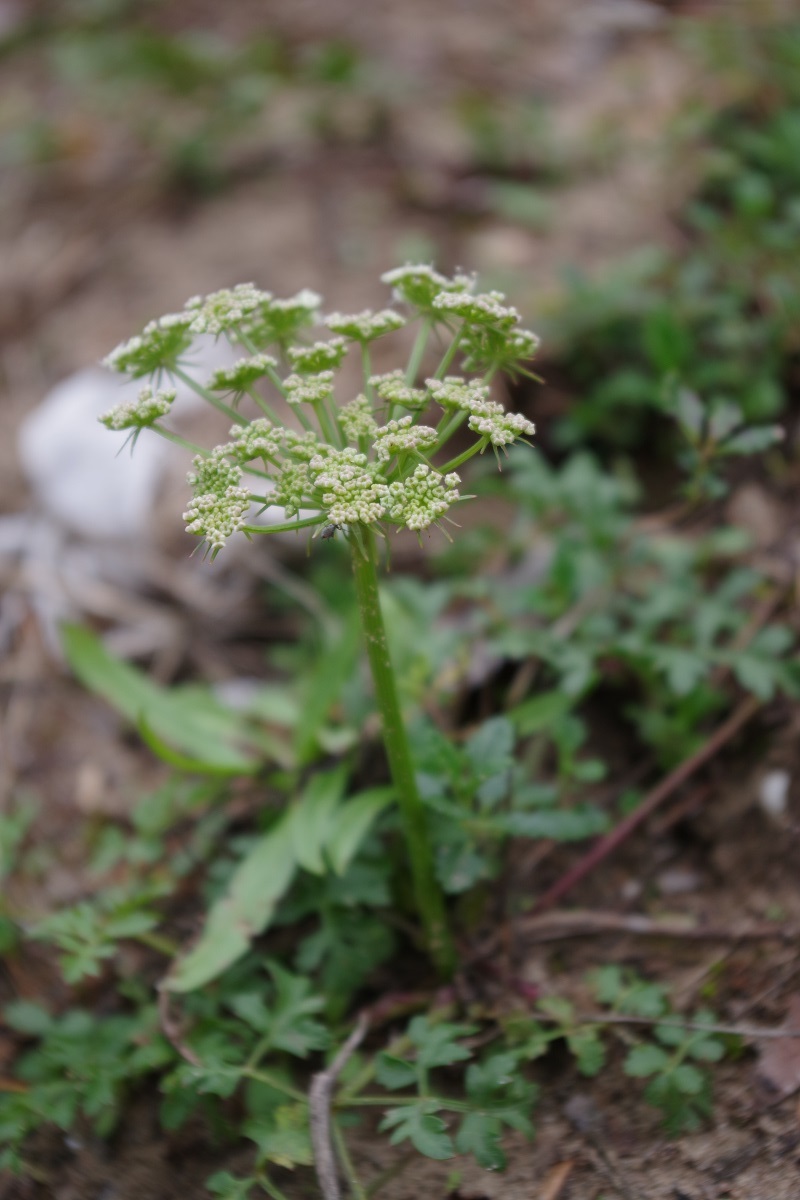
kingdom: Plantae
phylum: Tracheophyta
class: Magnoliopsida
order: Apiales
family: Apiaceae
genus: Oreoselinum
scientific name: Oreoselinum nigrum
